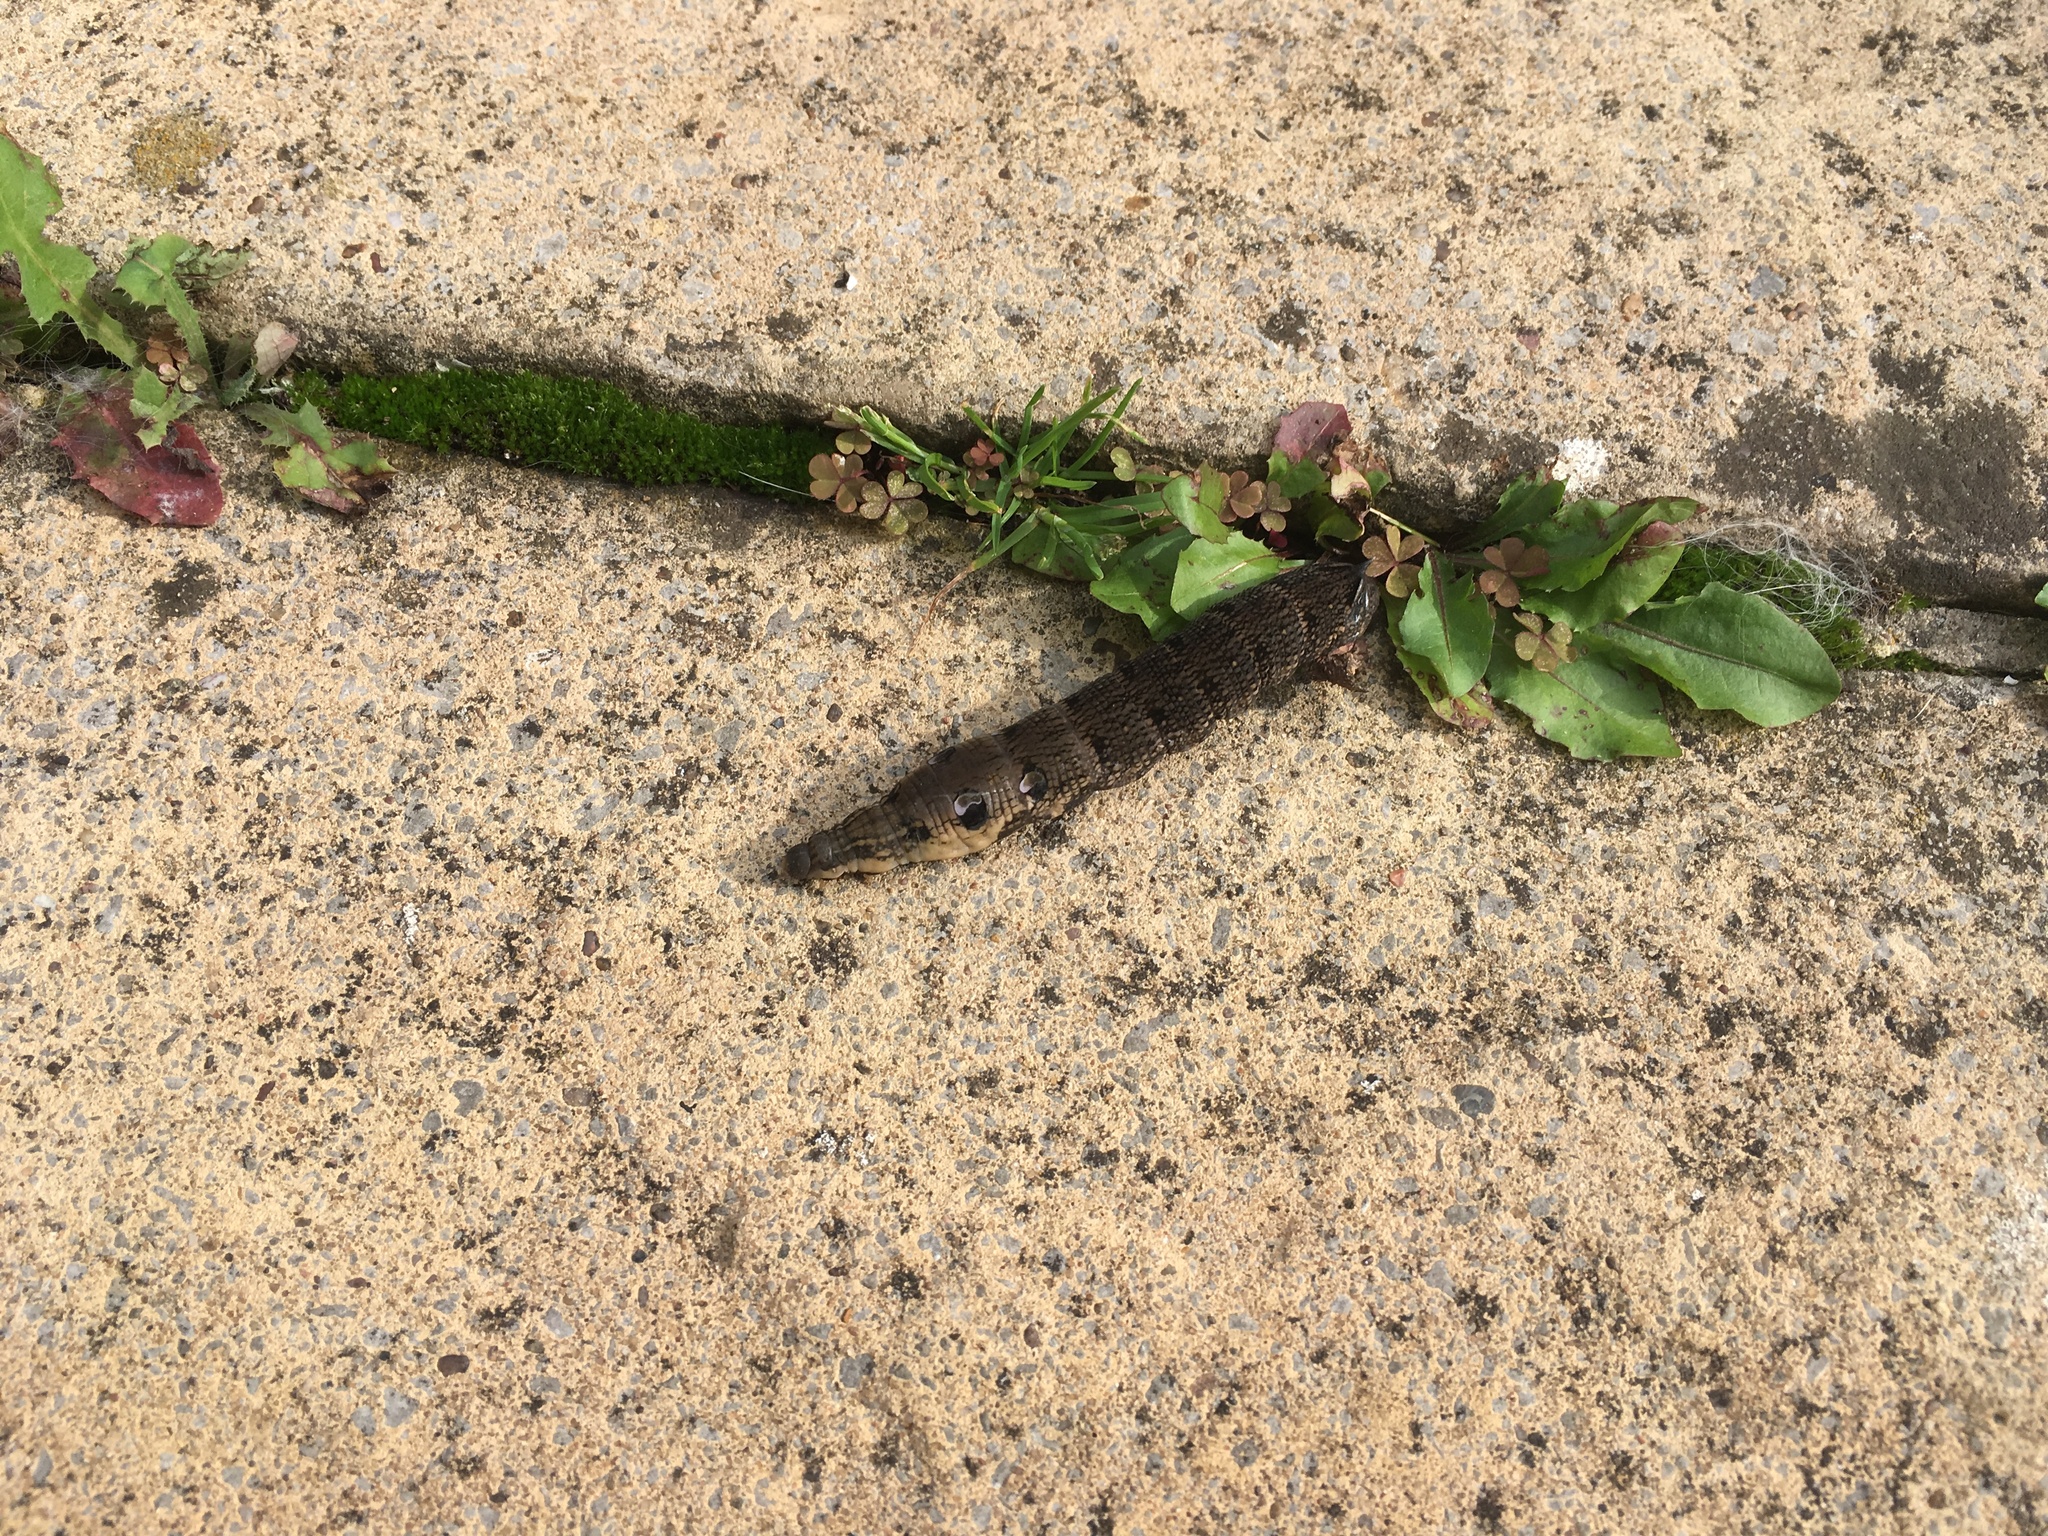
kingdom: Animalia
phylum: Arthropoda
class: Insecta
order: Lepidoptera
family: Sphingidae
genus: Deilephila
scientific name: Deilephila elpenor
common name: Elephant hawk-moth
